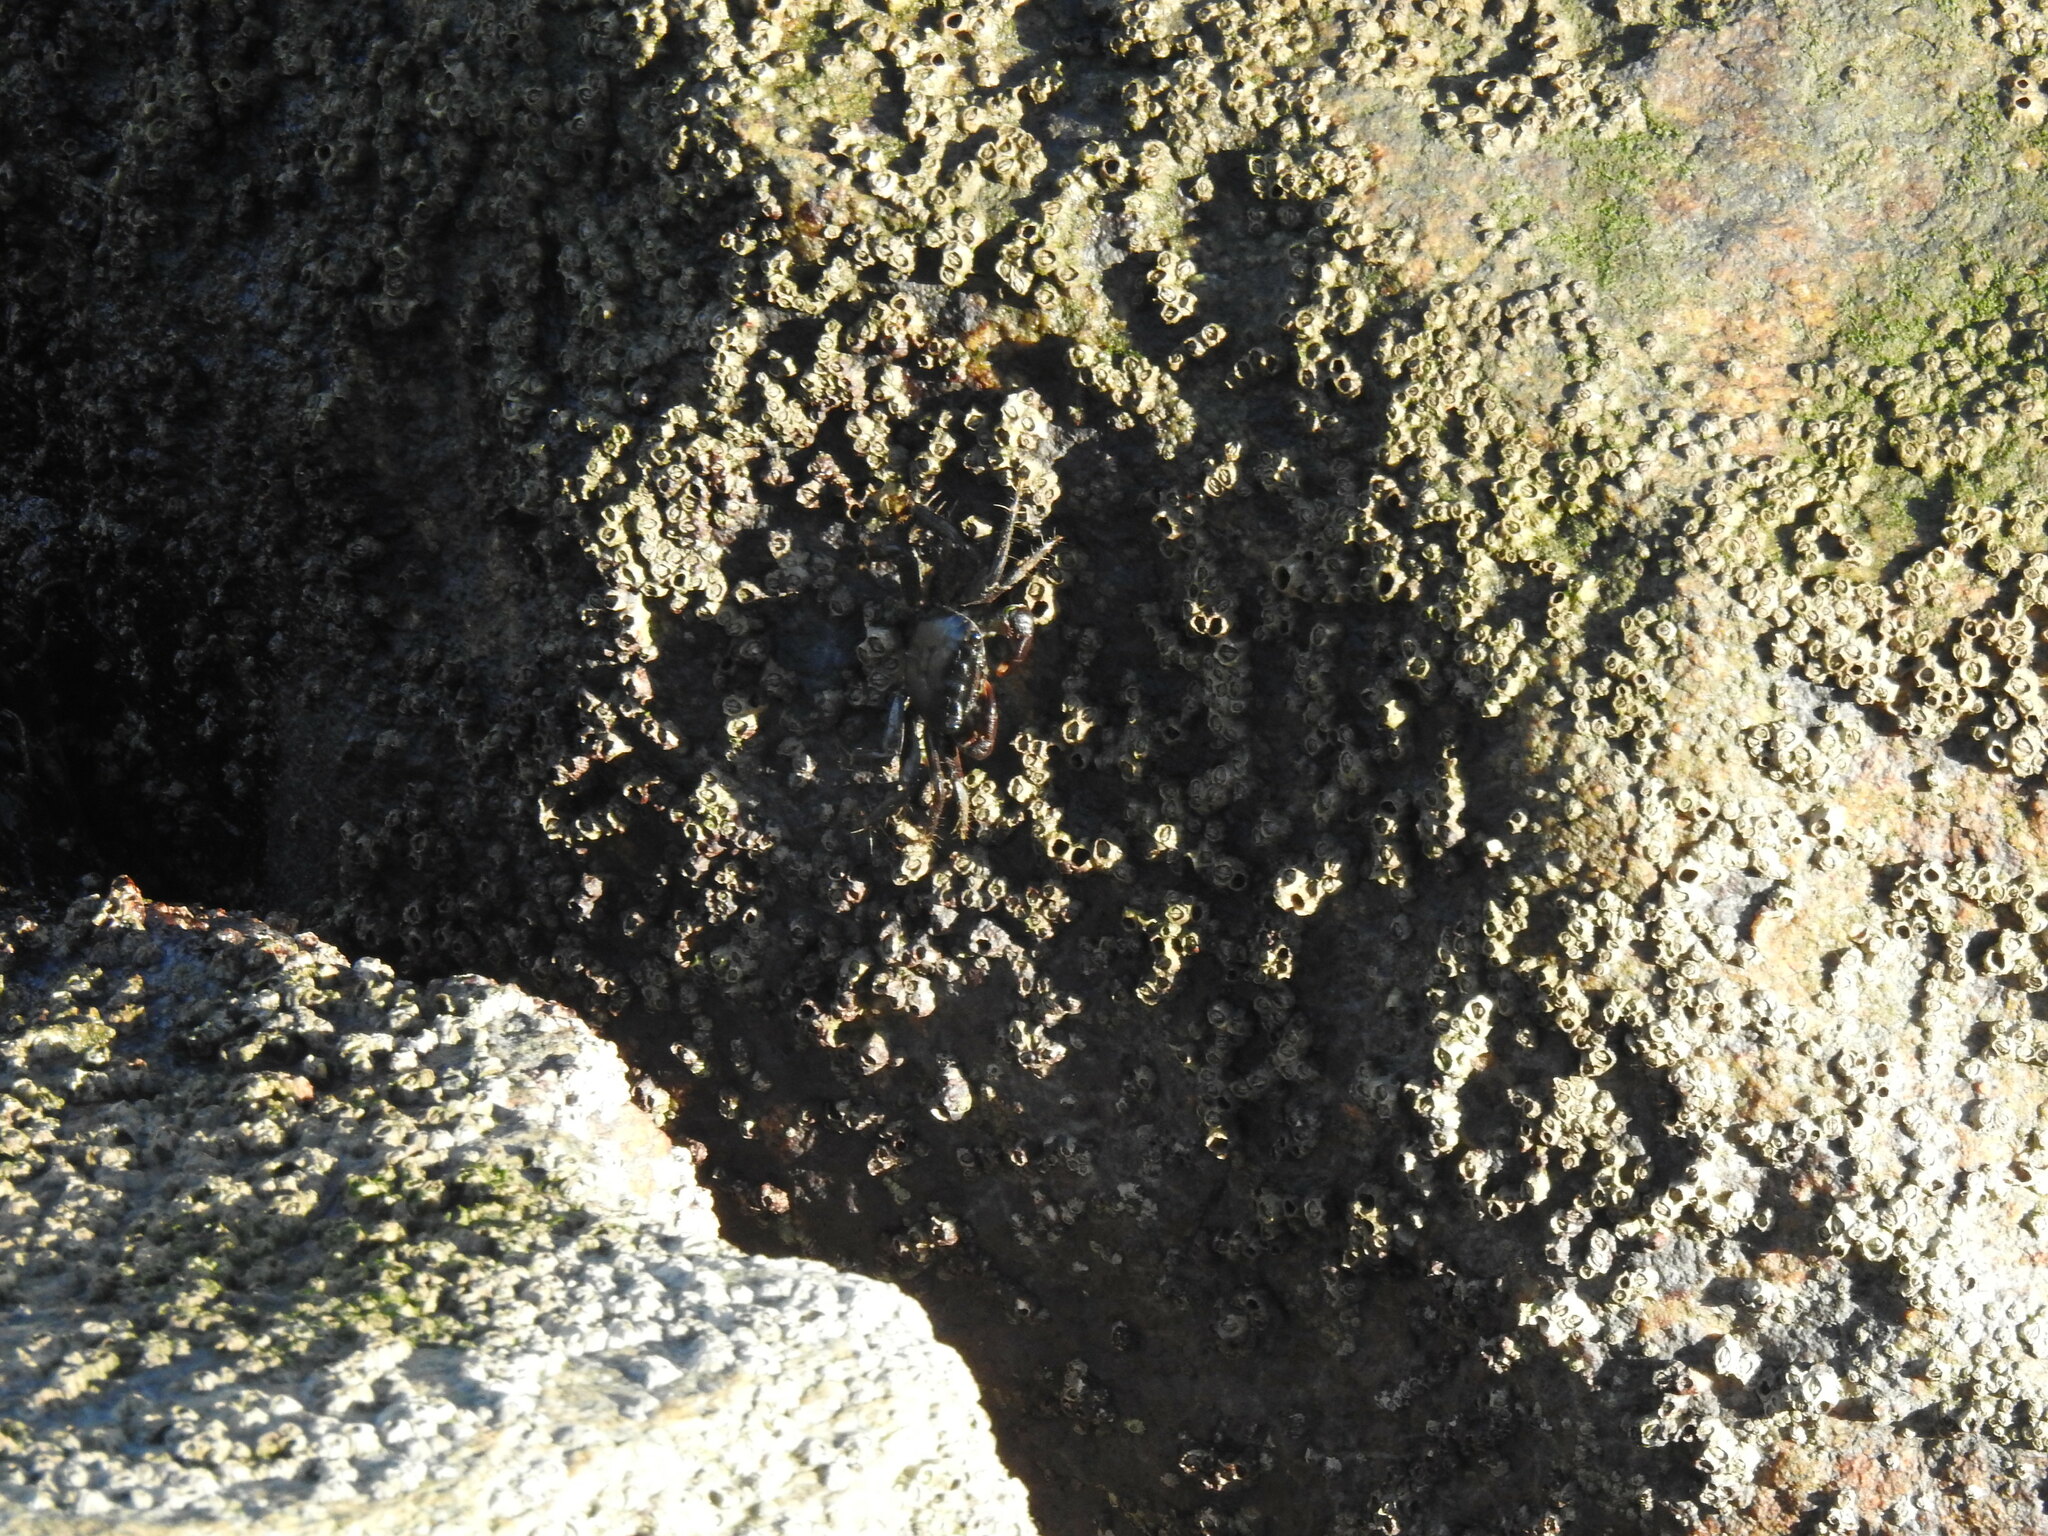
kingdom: Animalia
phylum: Arthropoda
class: Malacostraca
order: Decapoda
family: Grapsidae
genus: Pachygrapsus
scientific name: Pachygrapsus marmoratus
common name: Marbled rock crab
